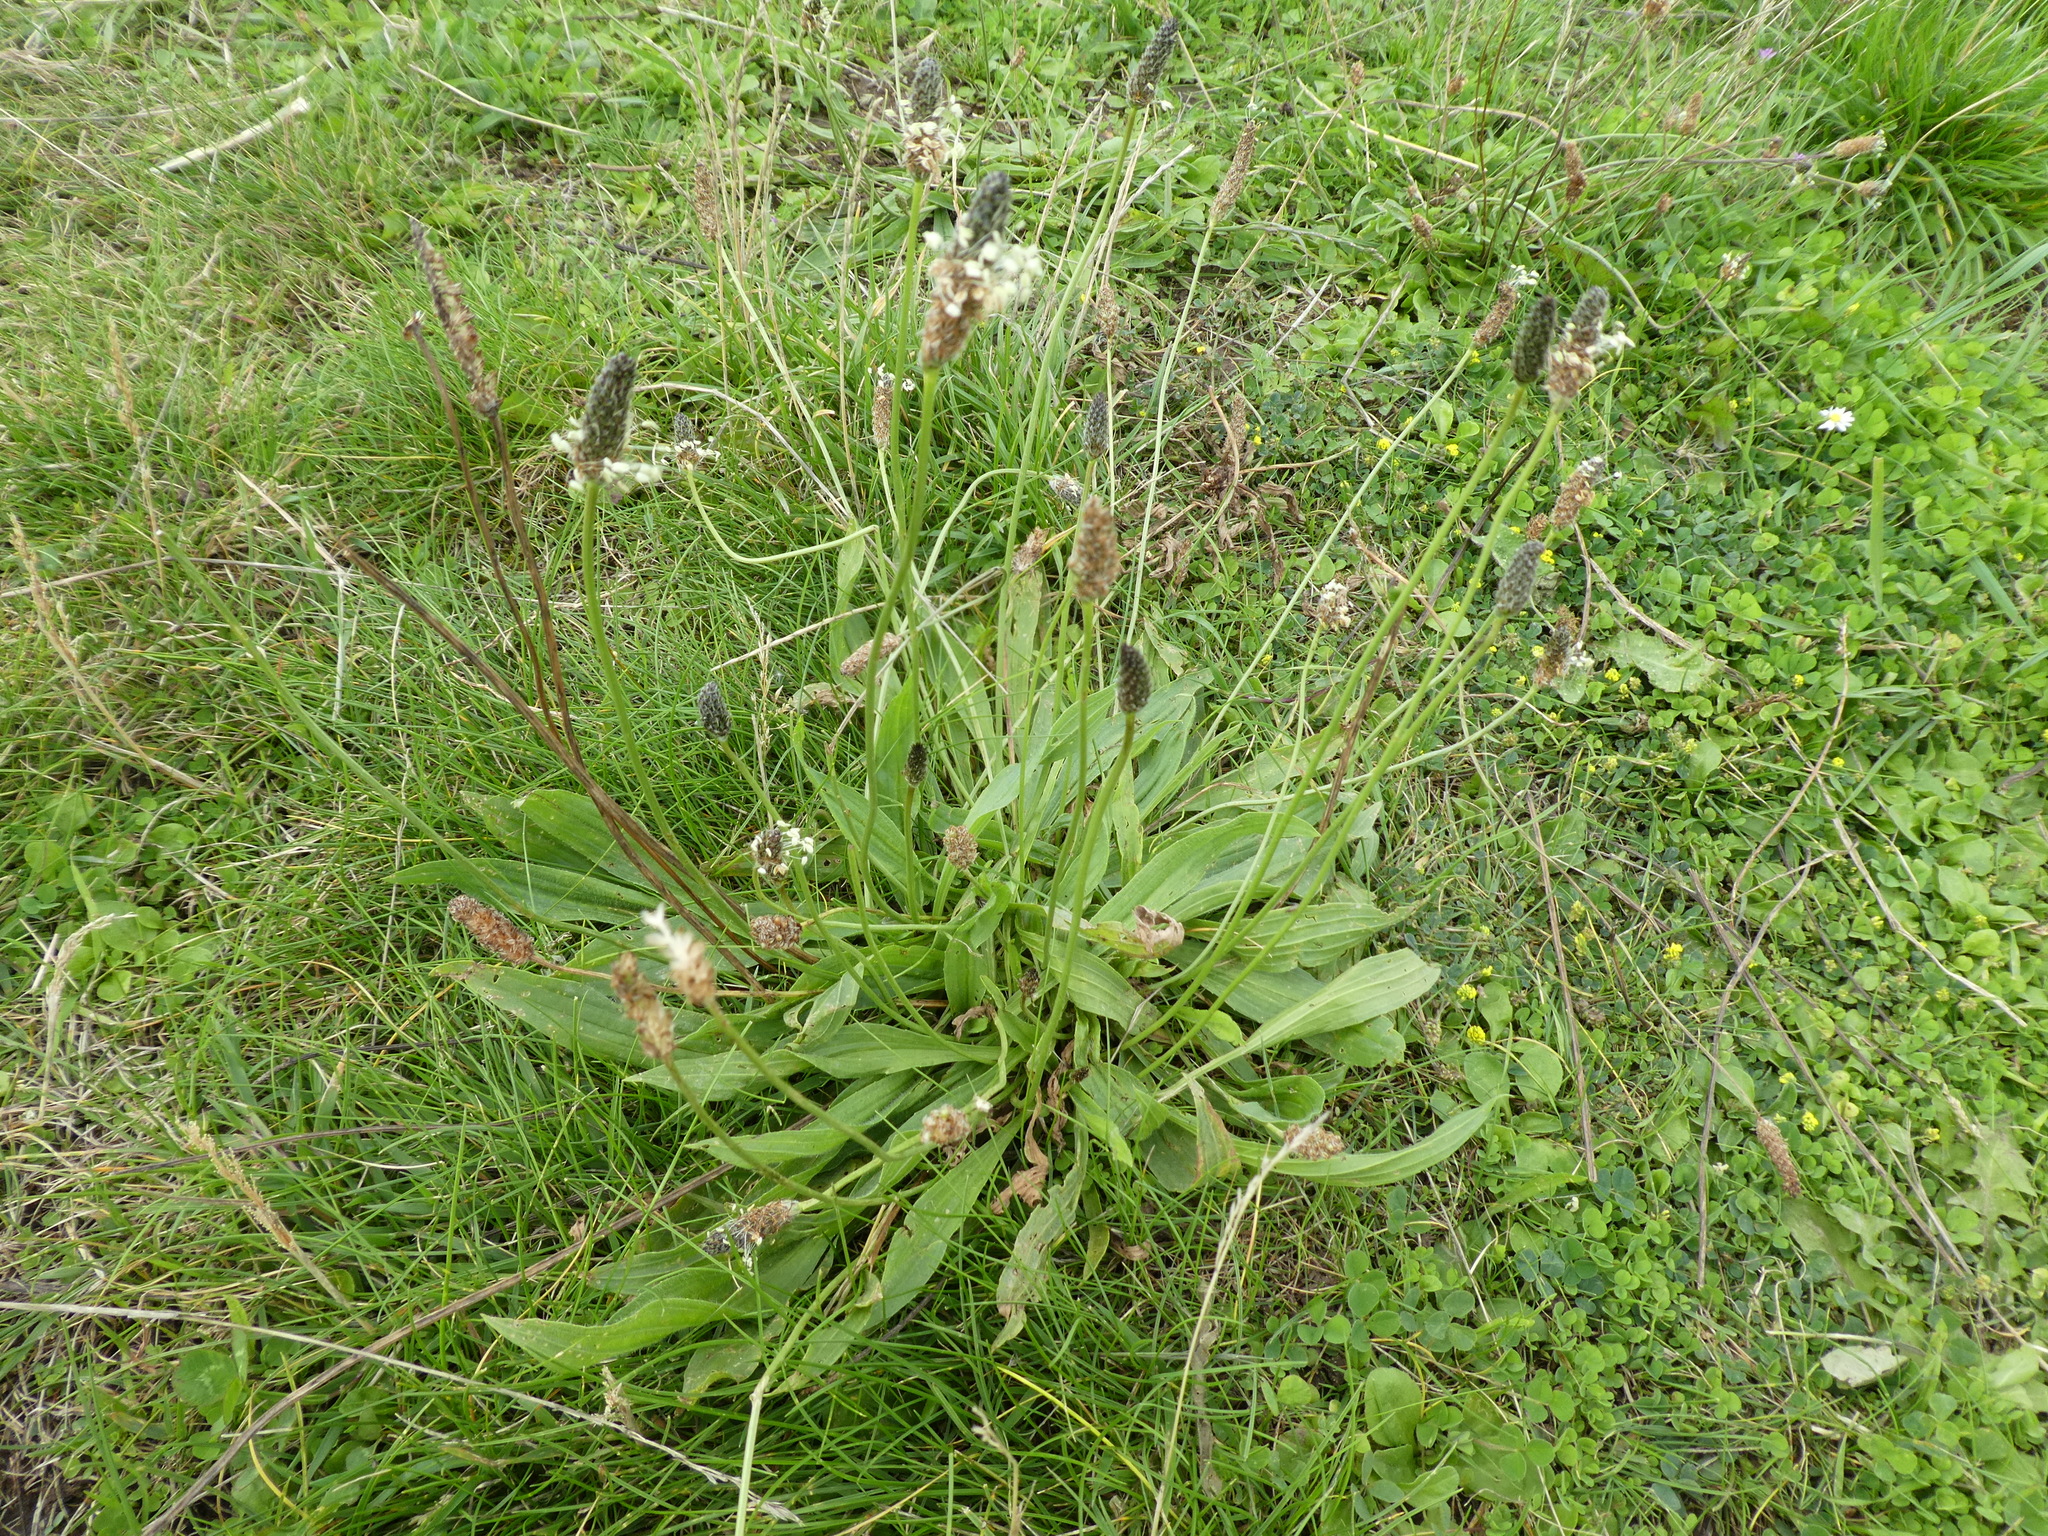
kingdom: Plantae
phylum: Tracheophyta
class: Magnoliopsida
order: Lamiales
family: Plantaginaceae
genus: Plantago
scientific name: Plantago lanceolata
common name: Ribwort plantain
